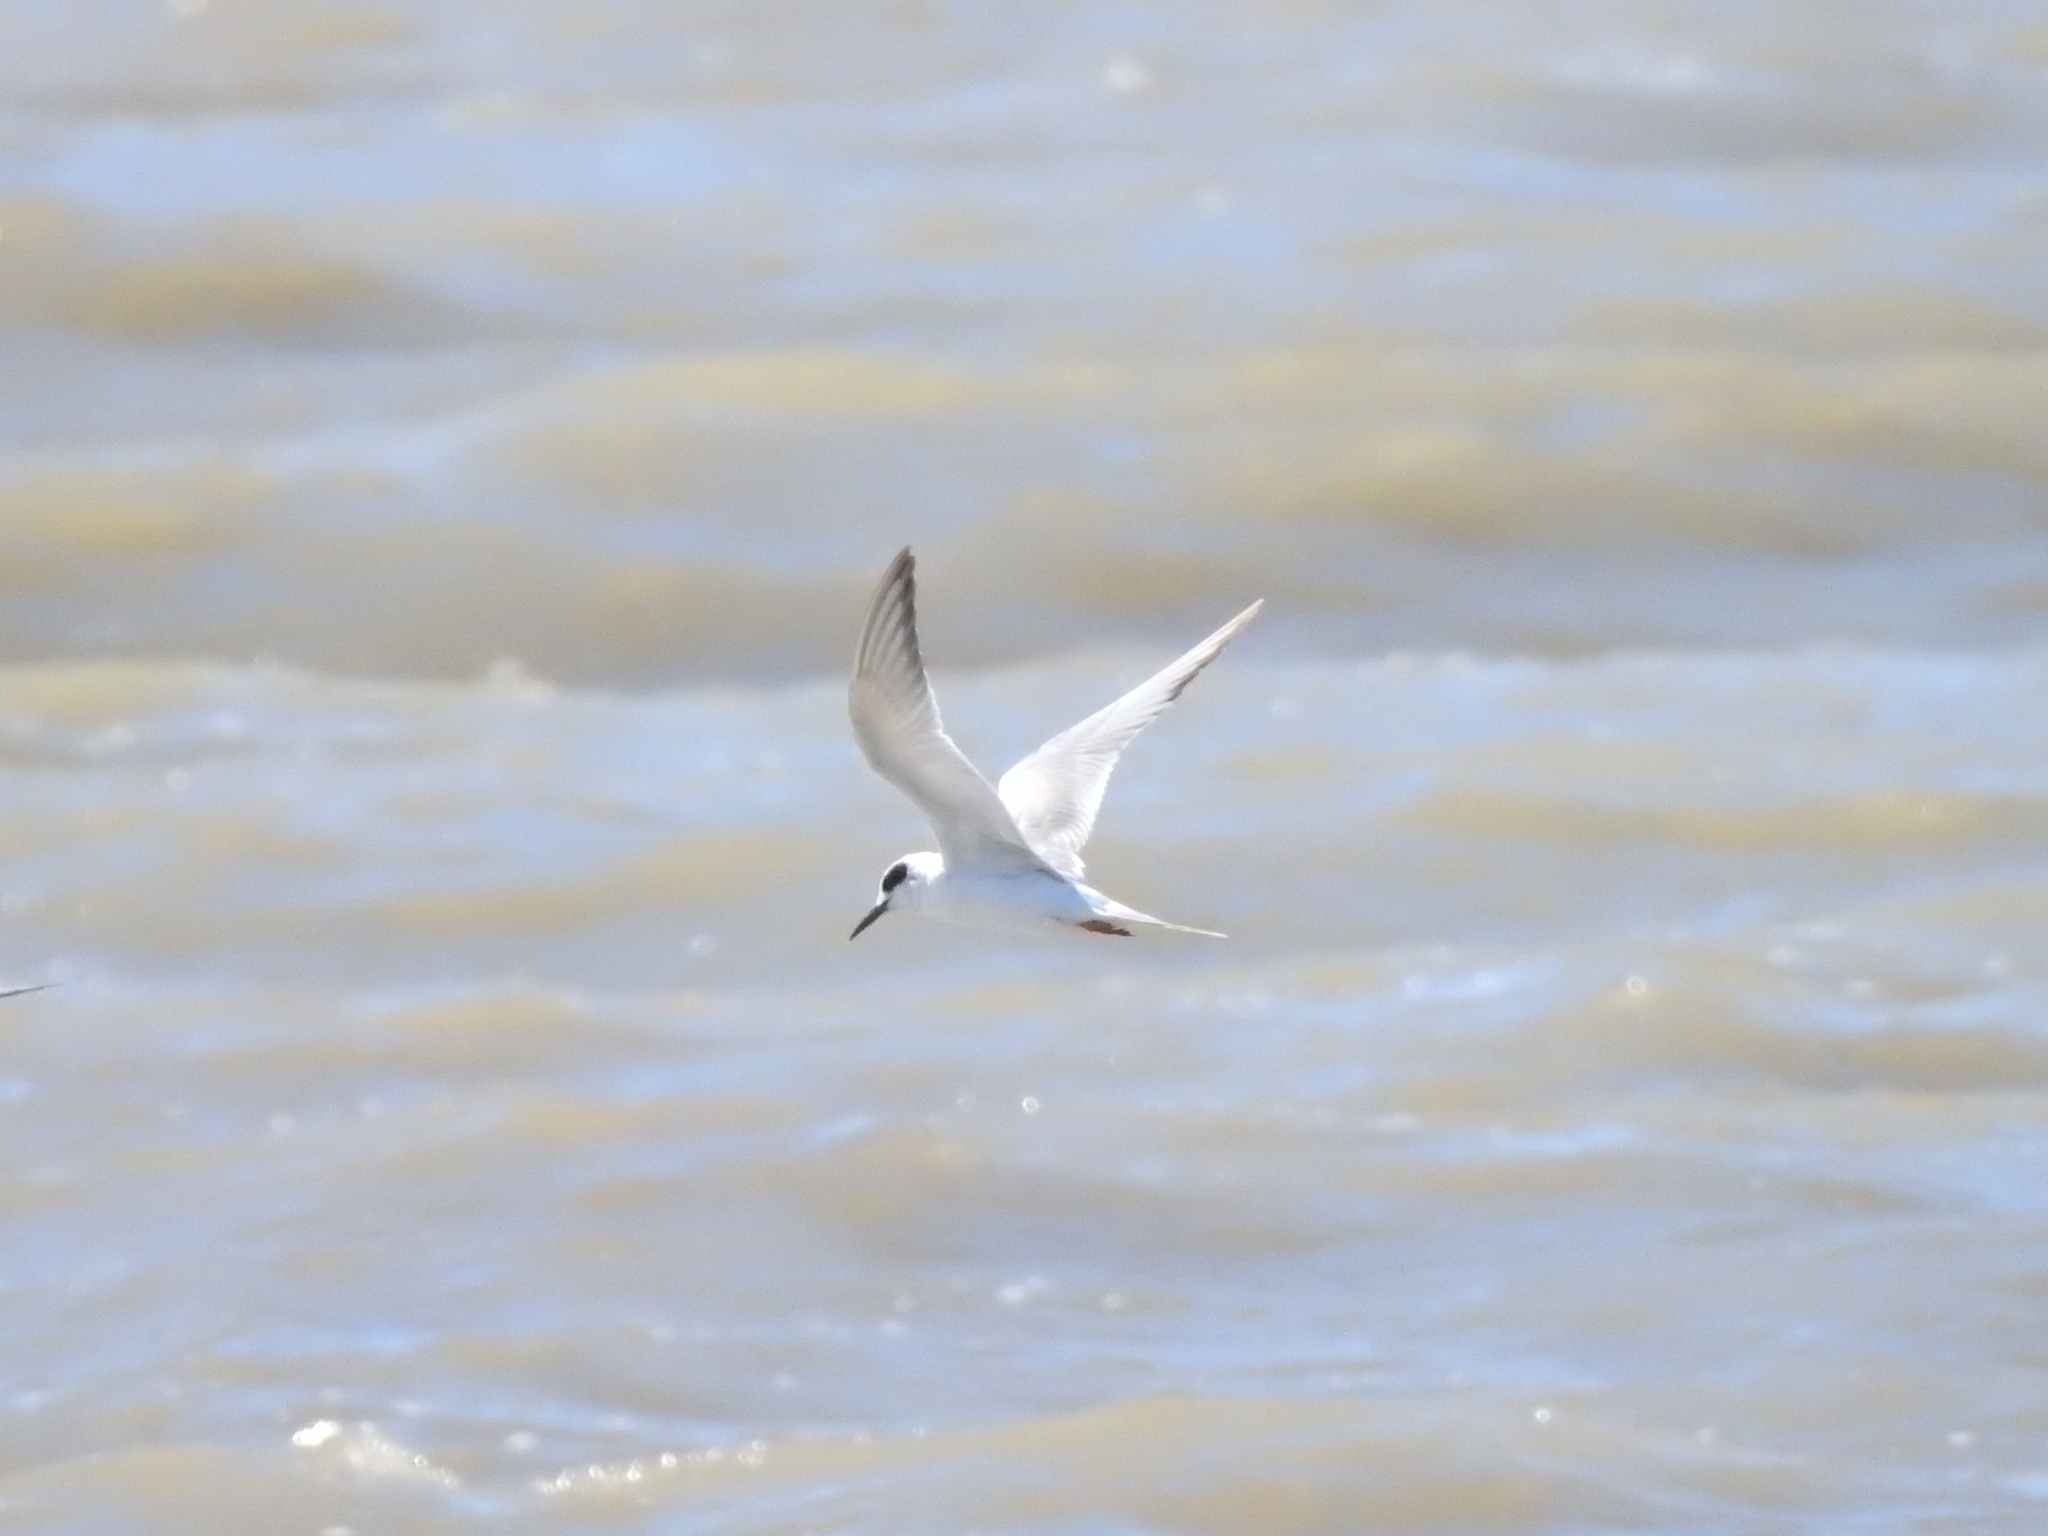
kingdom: Animalia
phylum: Chordata
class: Aves
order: Charadriiformes
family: Laridae
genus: Sterna
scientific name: Sterna forsteri
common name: Forster's tern
